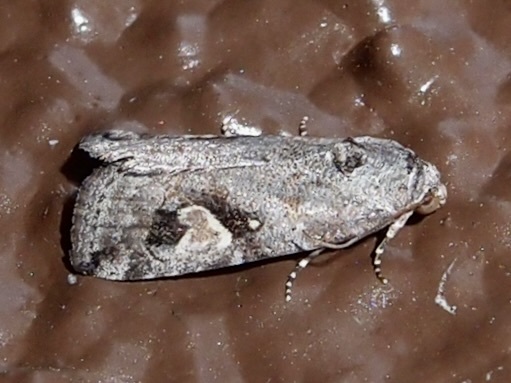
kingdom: Animalia
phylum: Arthropoda
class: Insecta
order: Lepidoptera
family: Noctuidae
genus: Metaponpneumata
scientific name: Metaponpneumata rogenhoferi
